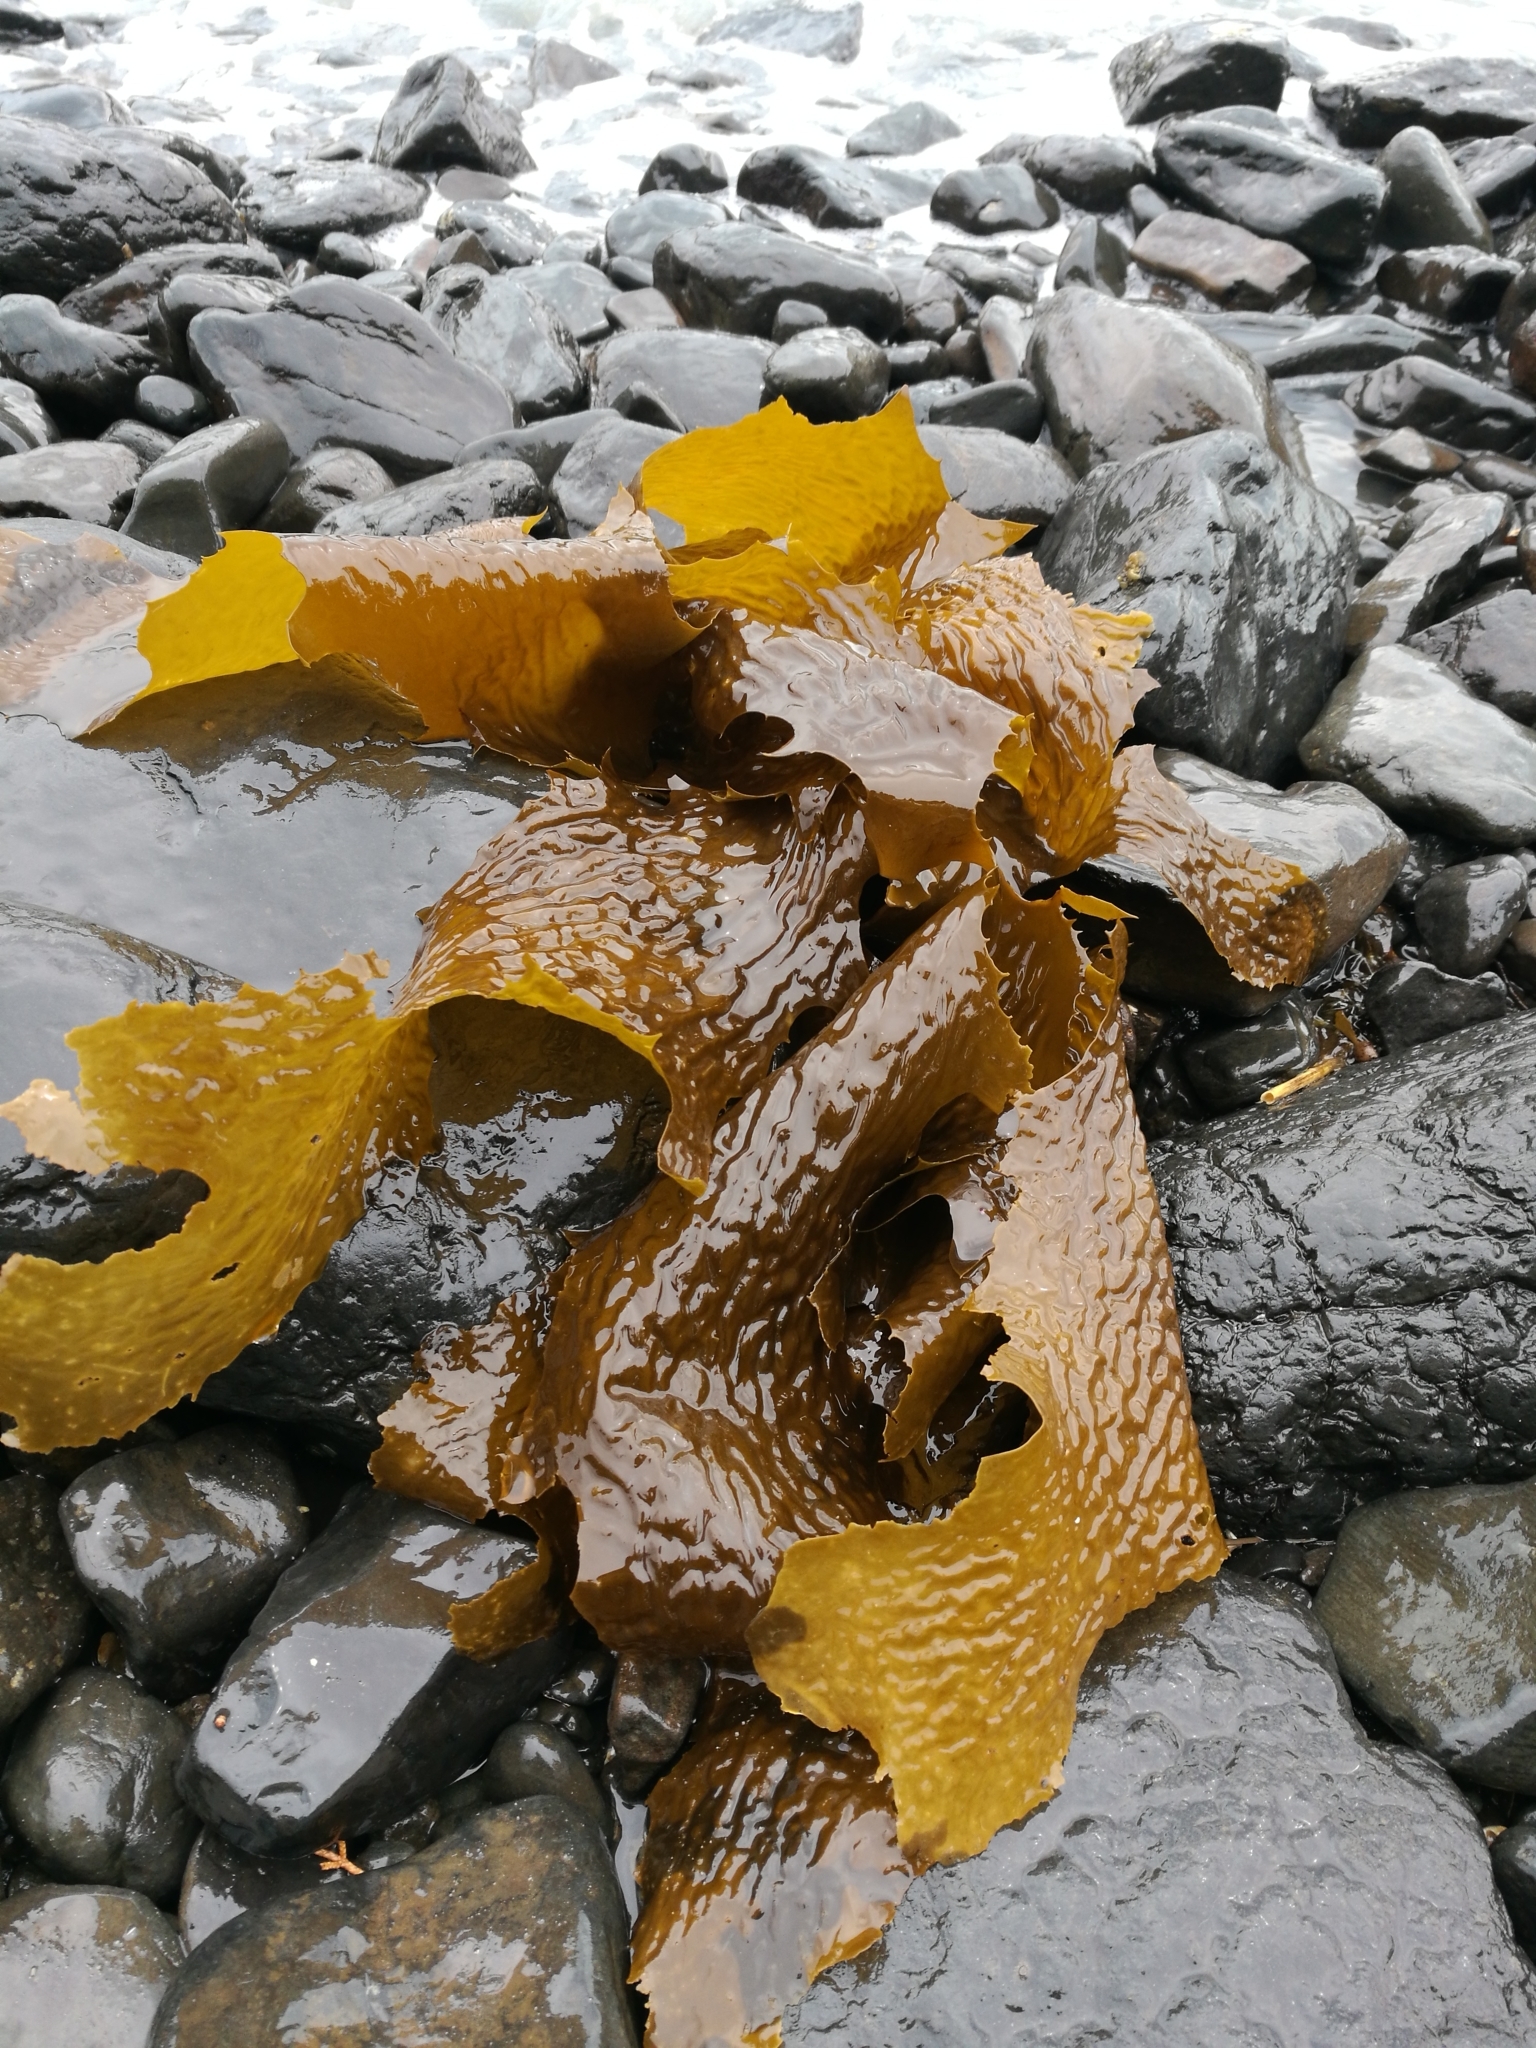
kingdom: Chromista
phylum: Ochrophyta
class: Phaeophyceae
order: Laminariales
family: Lessoniaceae
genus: Ecklonia
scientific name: Ecklonia radiata
